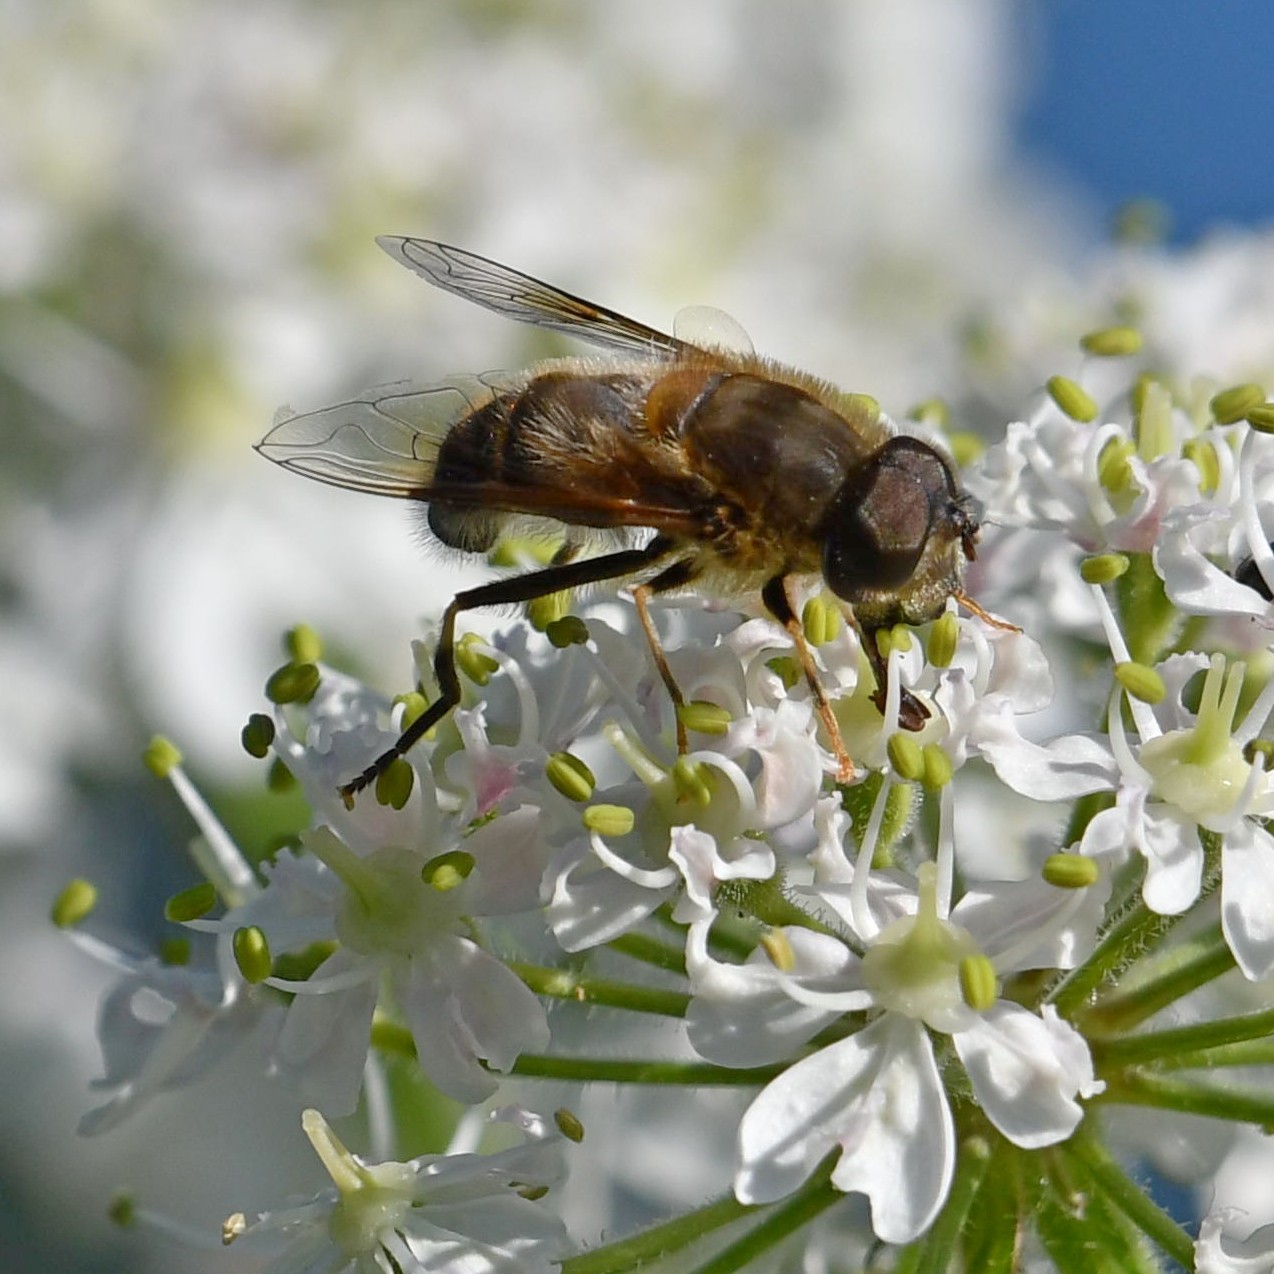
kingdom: Animalia
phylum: Arthropoda
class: Insecta
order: Diptera
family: Syrphidae
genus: Eristalis
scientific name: Eristalis pertinax
